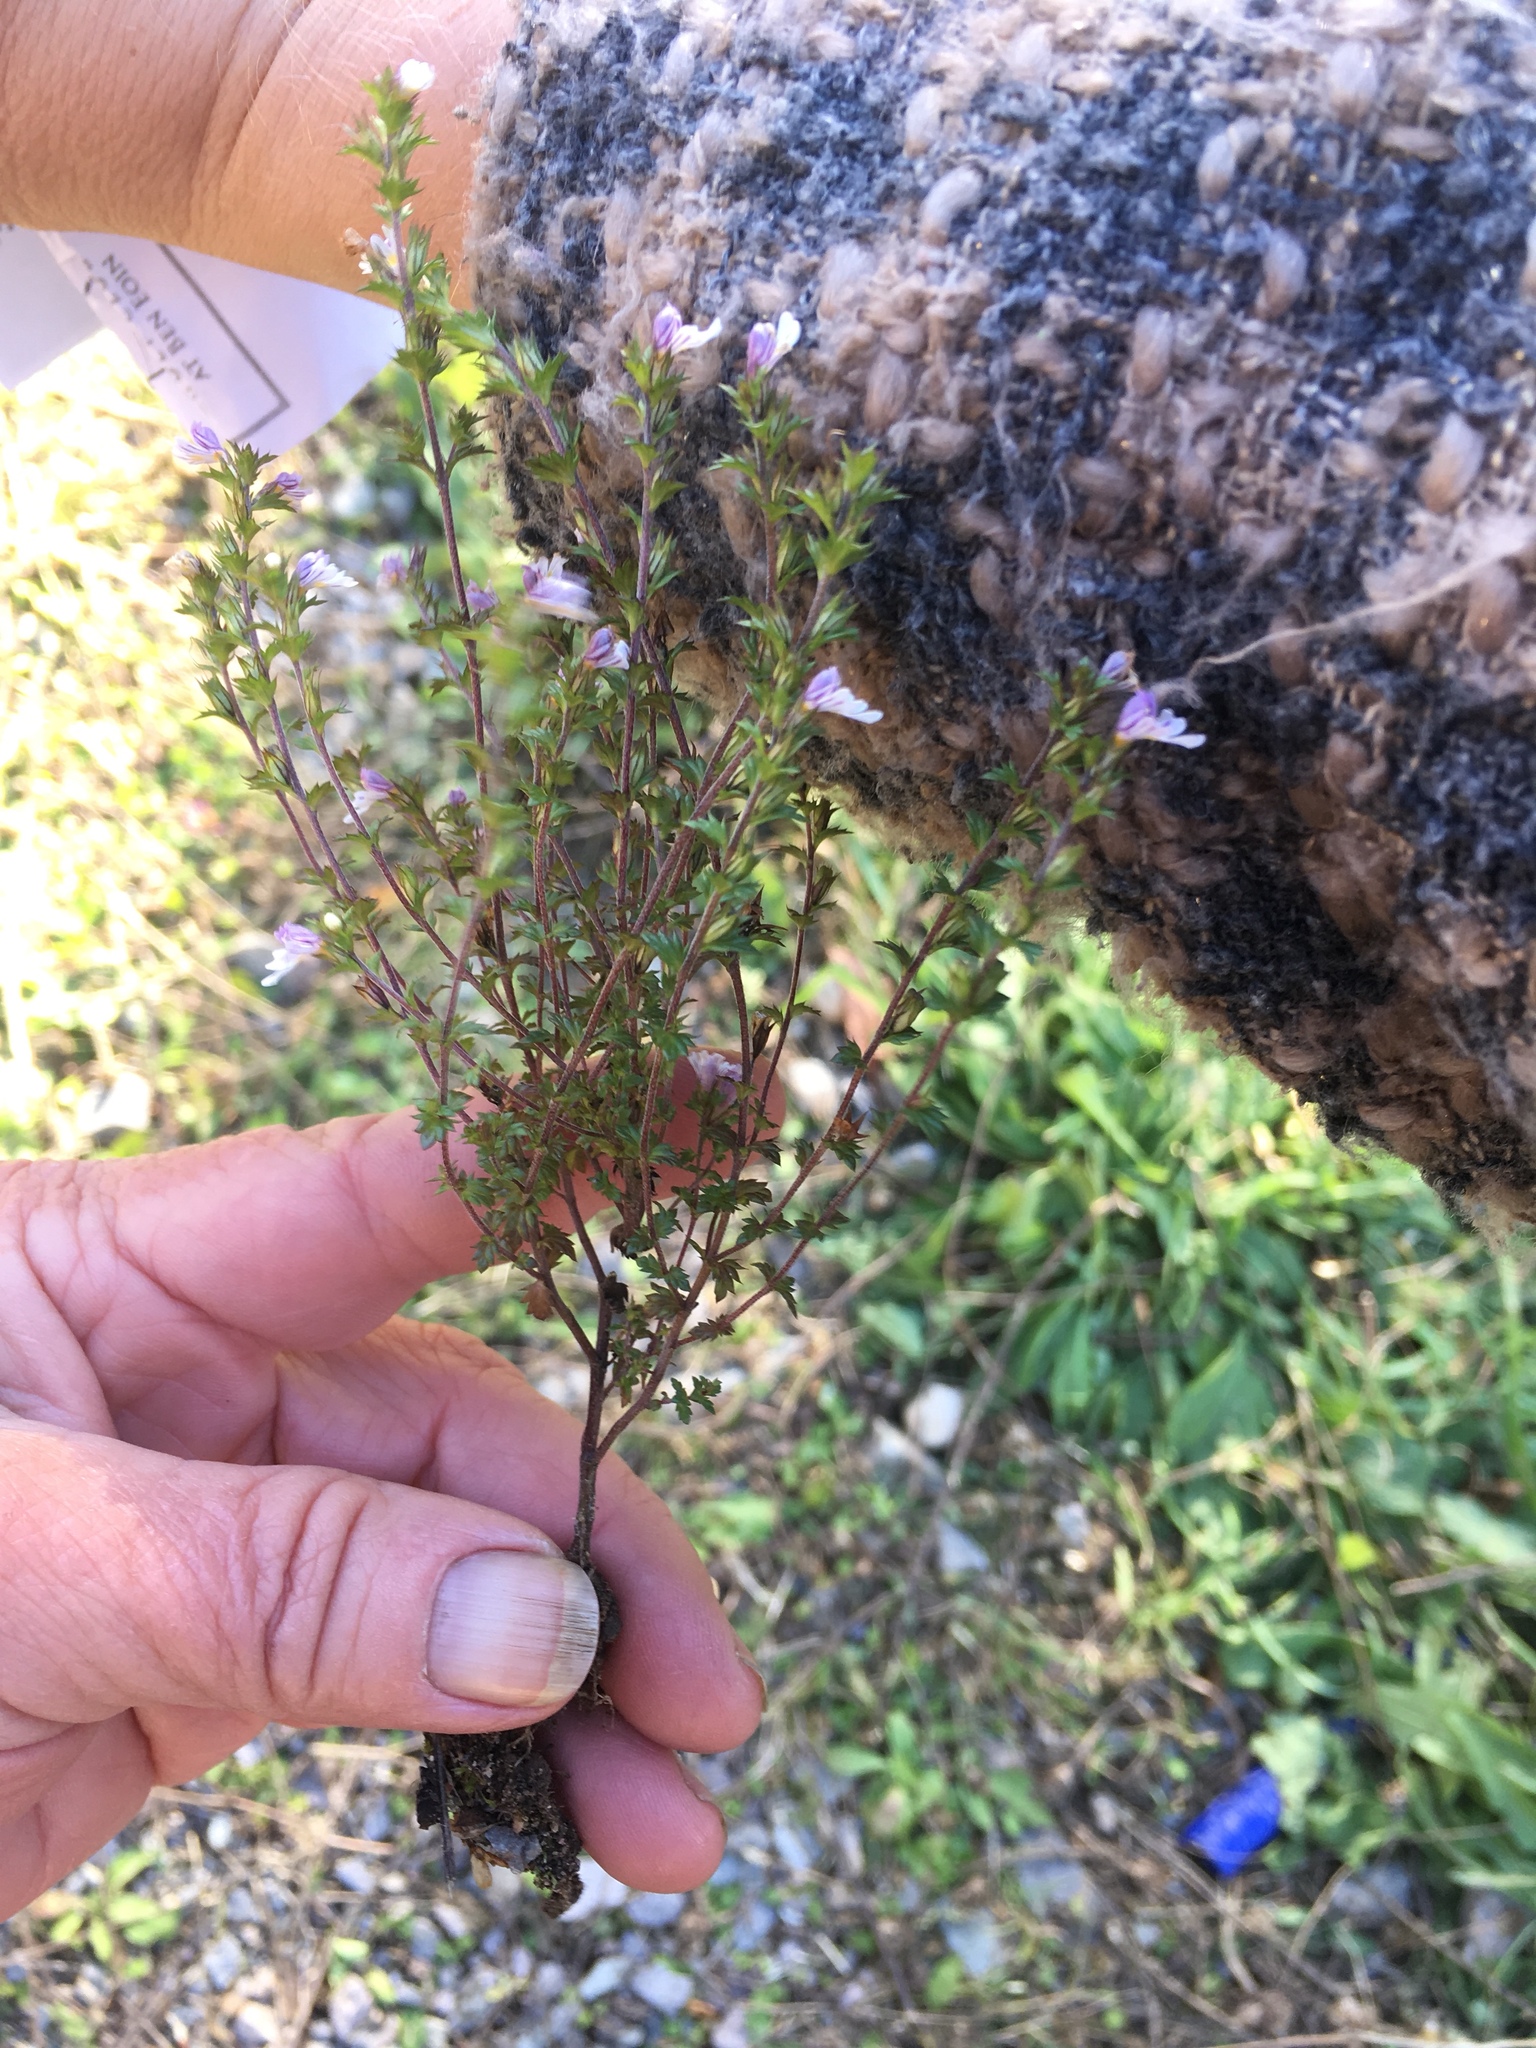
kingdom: Plantae
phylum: Tracheophyta
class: Magnoliopsida
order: Lamiales
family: Orobanchaceae
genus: Euphrasia
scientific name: Euphrasia nemorosa
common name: Common eyebright
